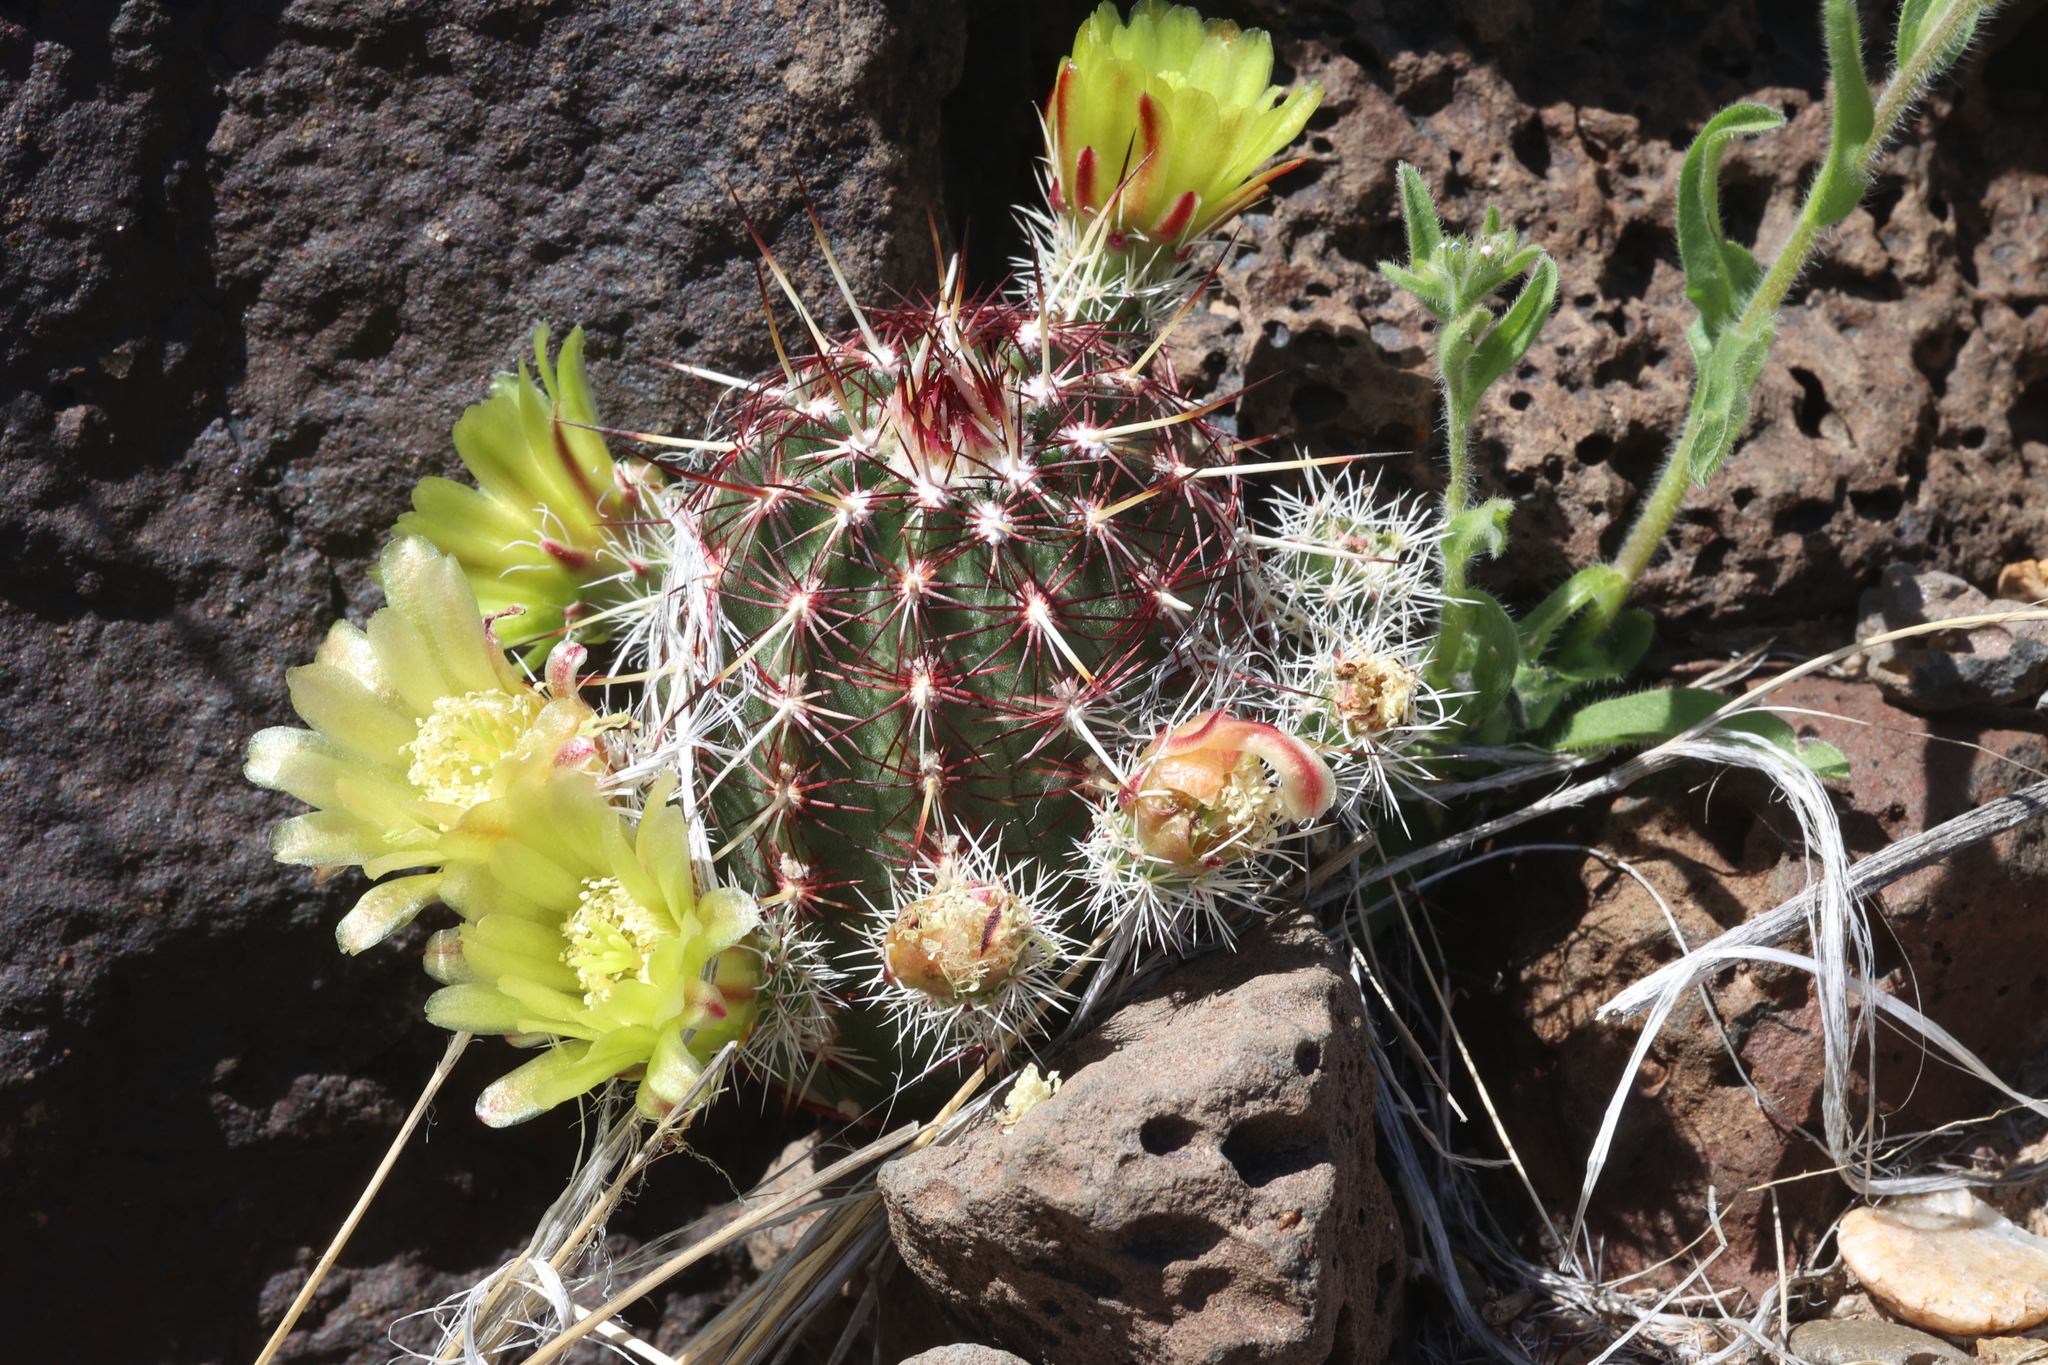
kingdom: Plantae
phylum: Tracheophyta
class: Magnoliopsida
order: Caryophyllales
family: Cactaceae
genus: Echinocereus
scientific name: Echinocereus viridiflorus
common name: Nylon hedgehog cactus
